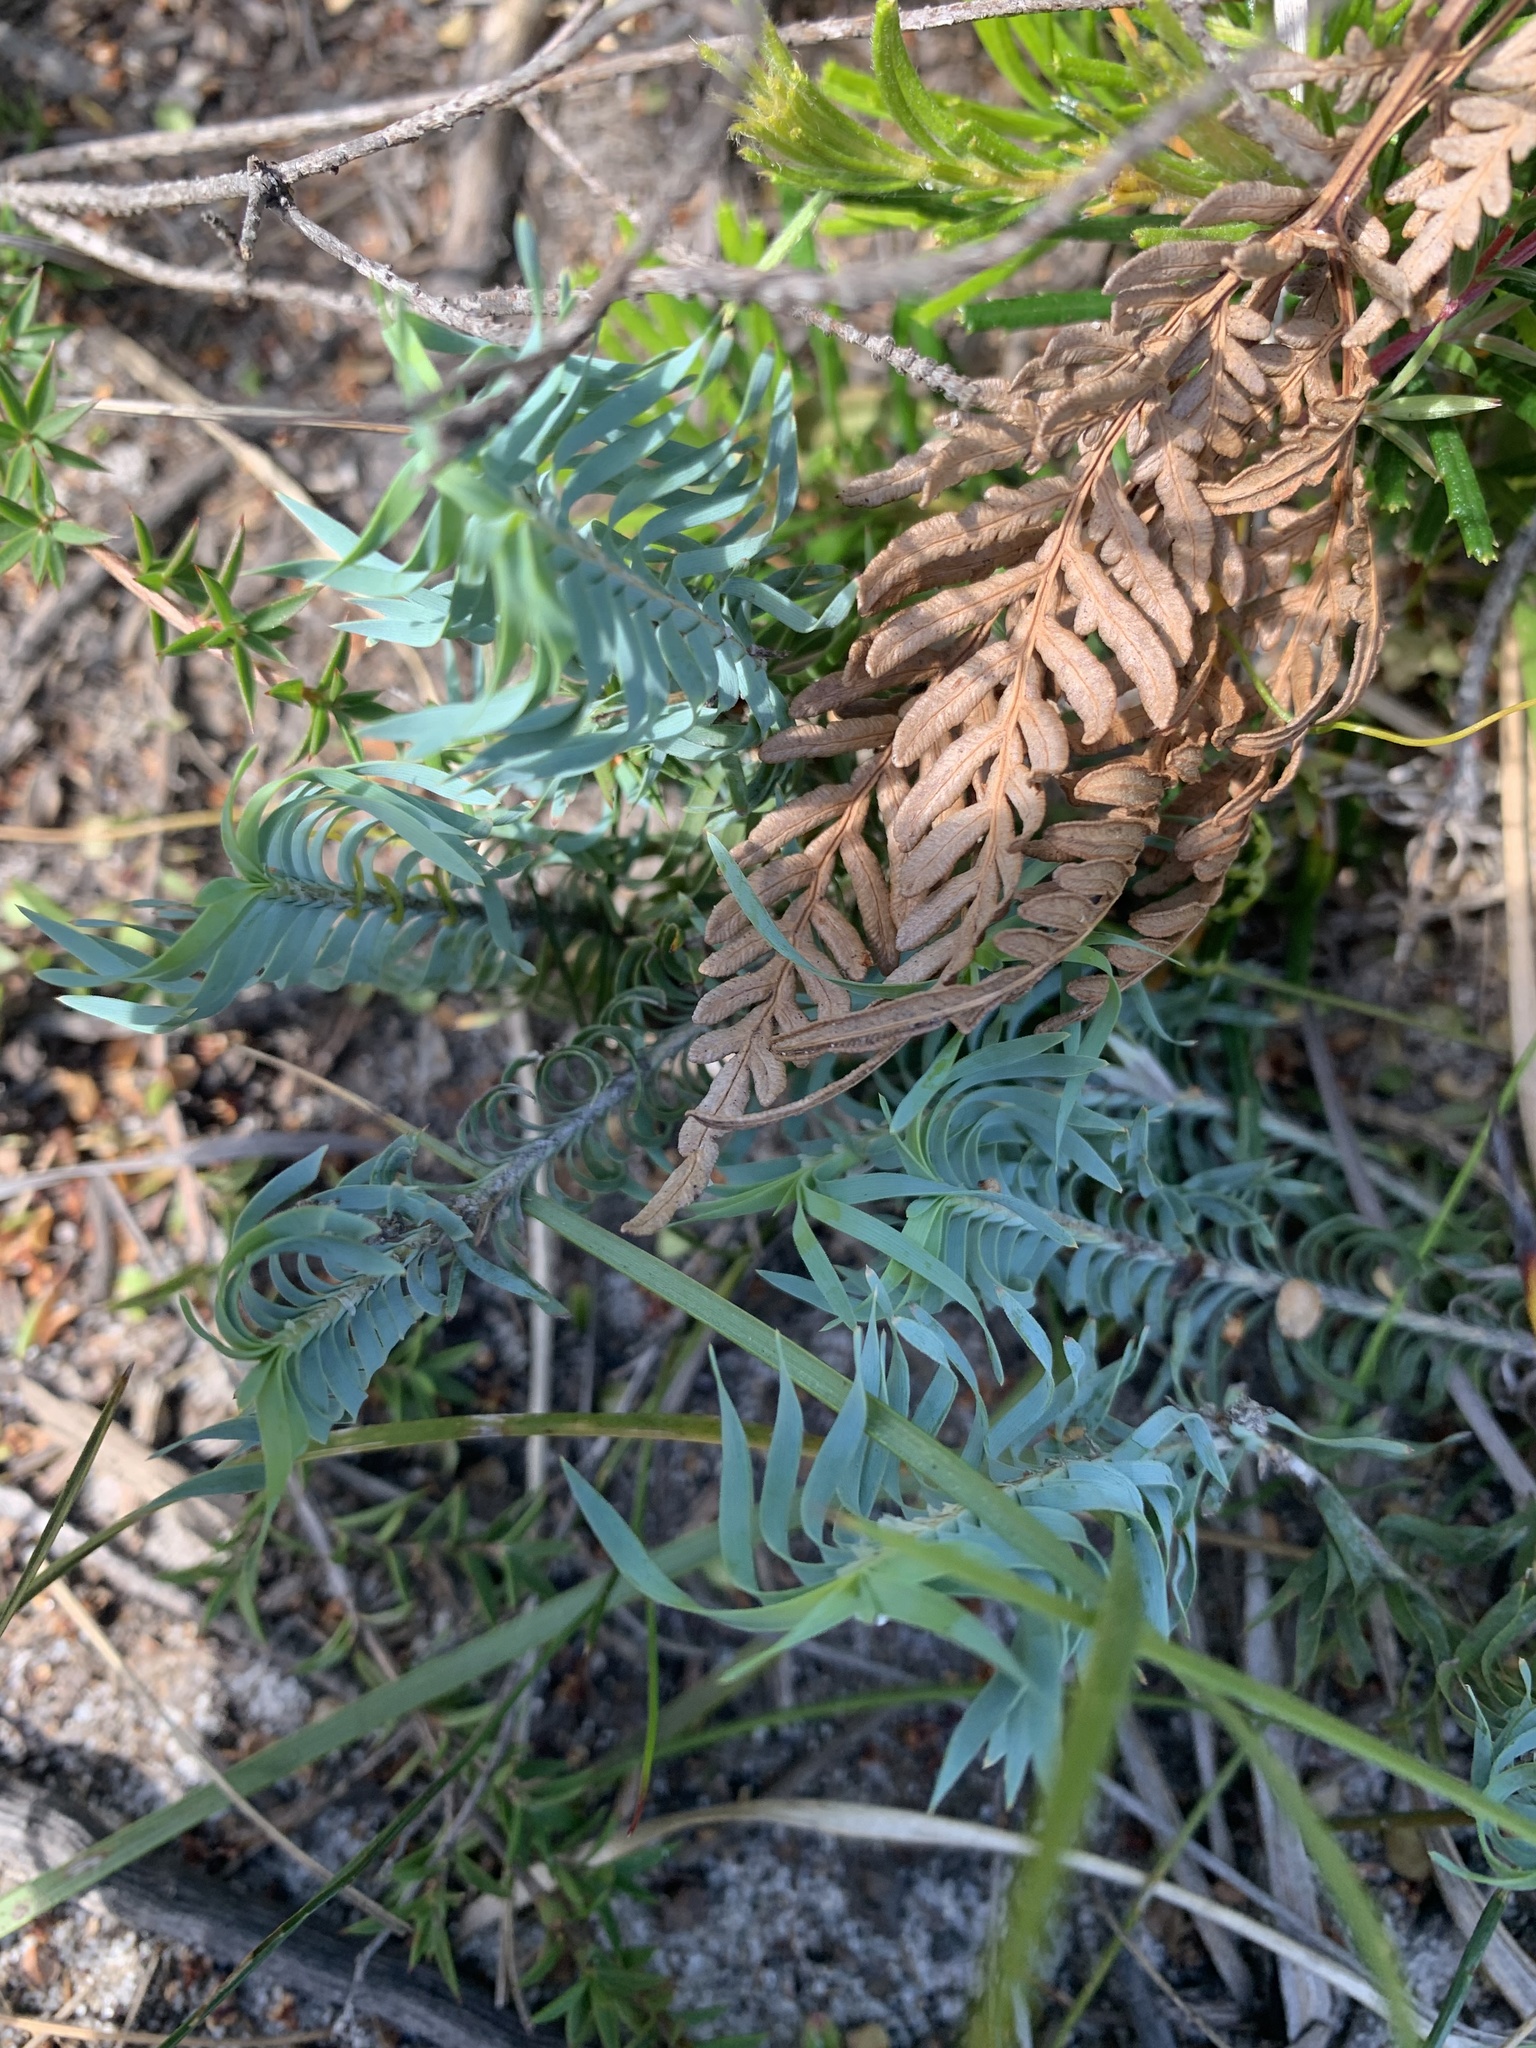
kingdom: Plantae
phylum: Tracheophyta
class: Liliopsida
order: Asparagales
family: Asparagaceae
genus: Lomandra
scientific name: Lomandra obliqua
